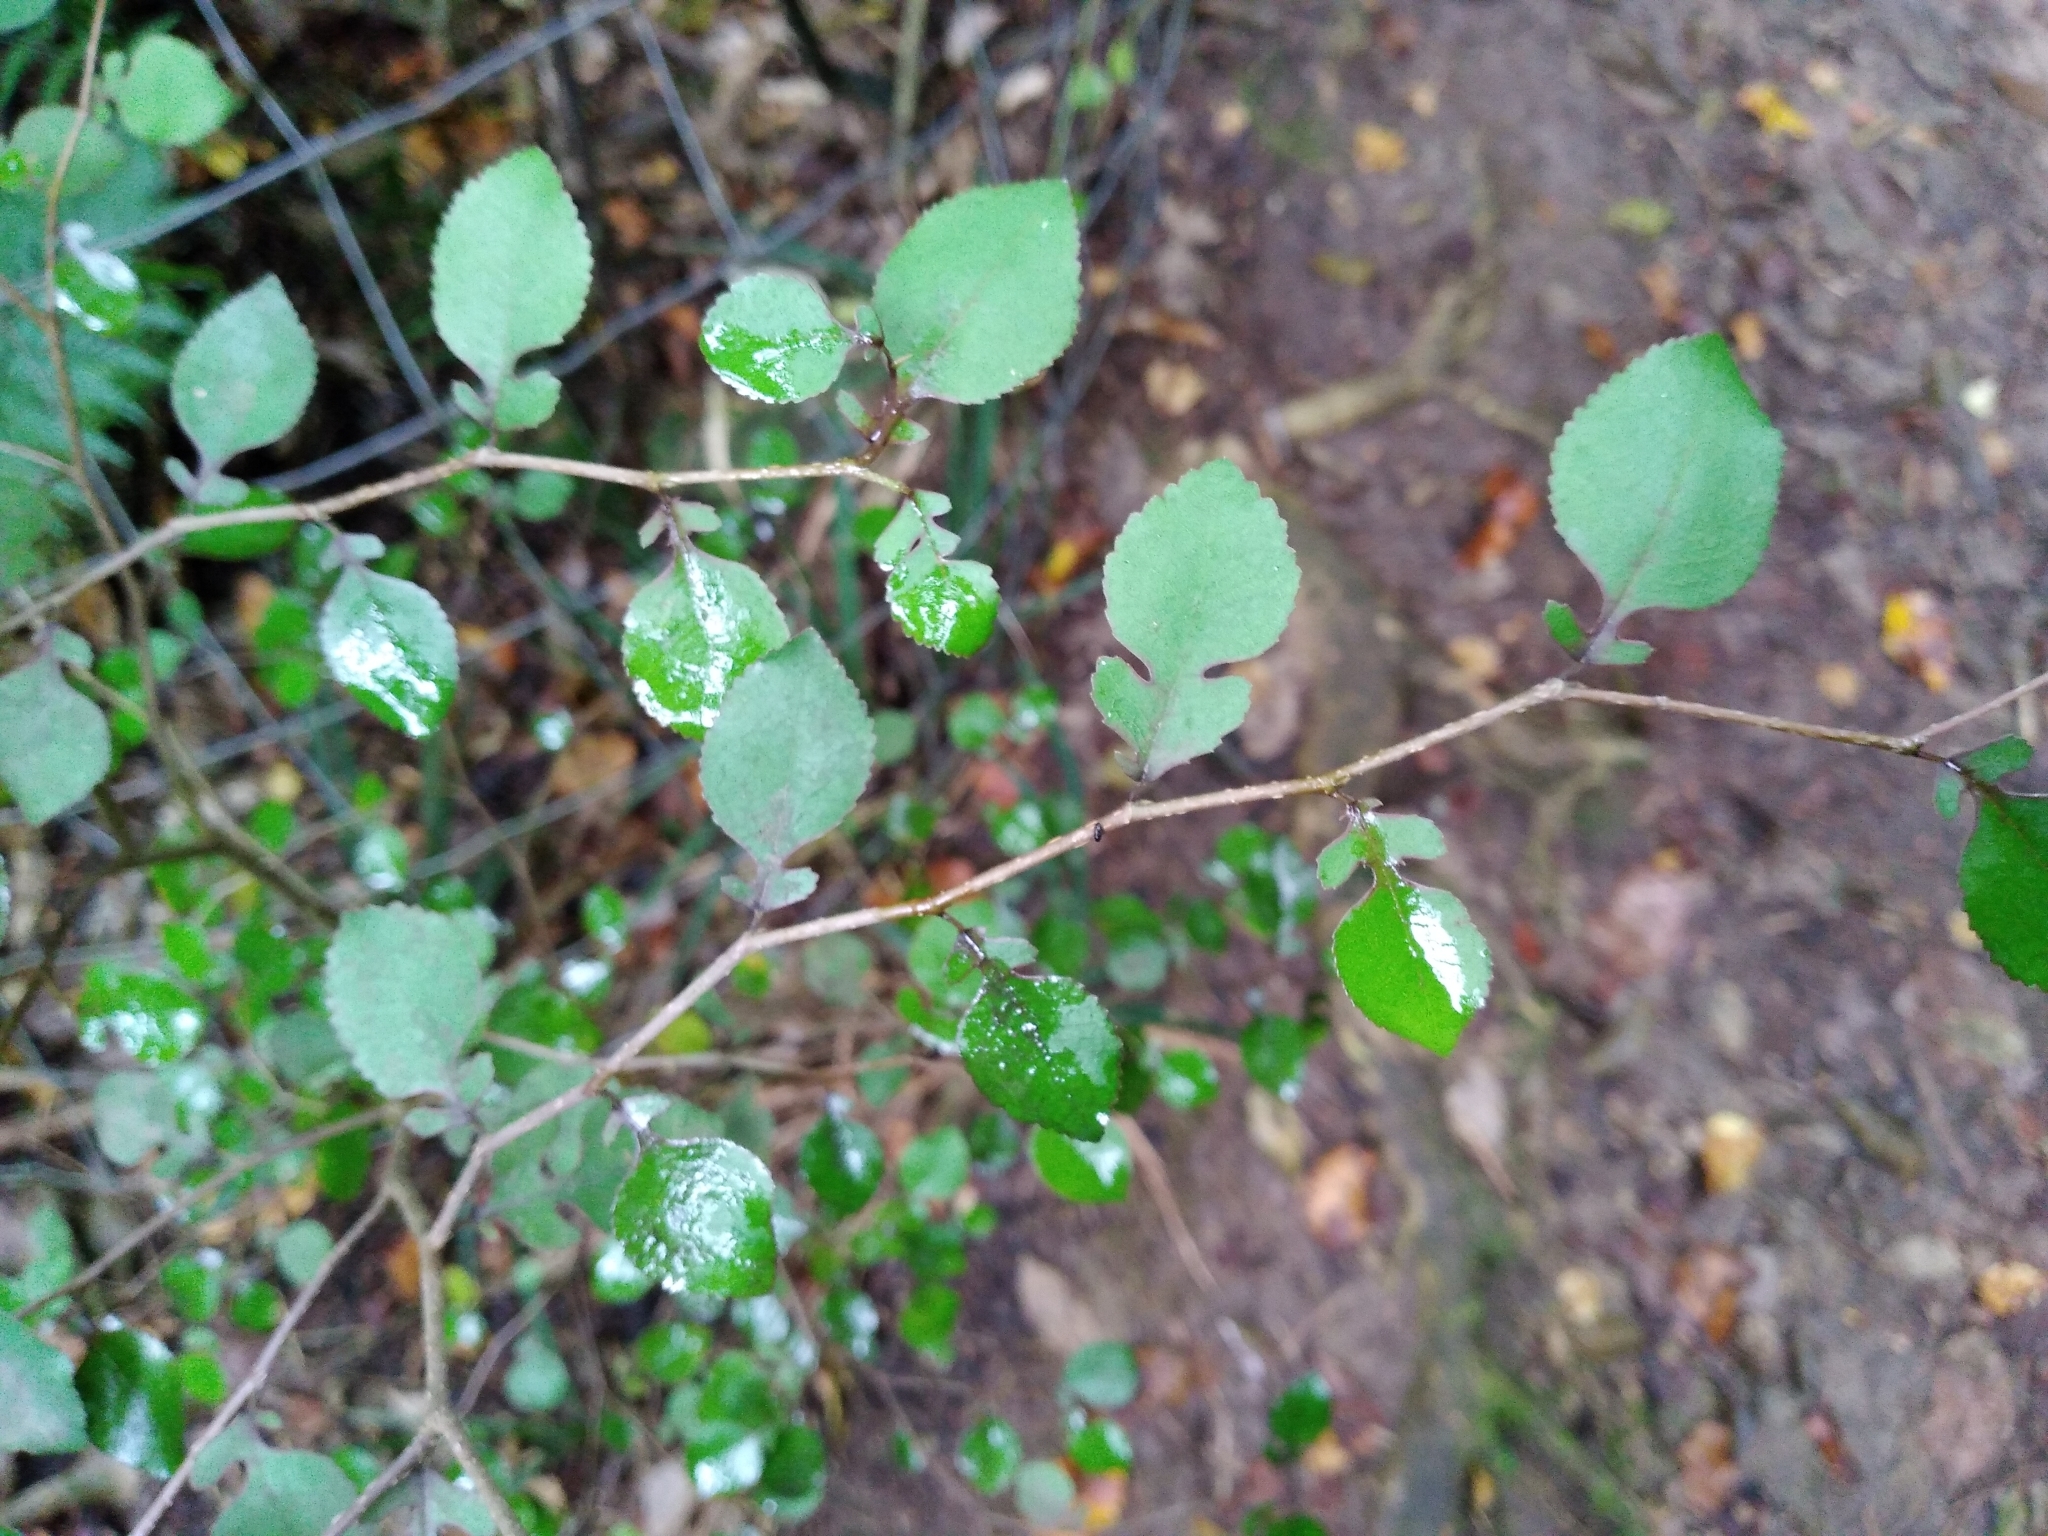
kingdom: Plantae
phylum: Tracheophyta
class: Magnoliopsida
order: Rosales
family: Moraceae
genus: Paratrophis
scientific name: Paratrophis microphylla
